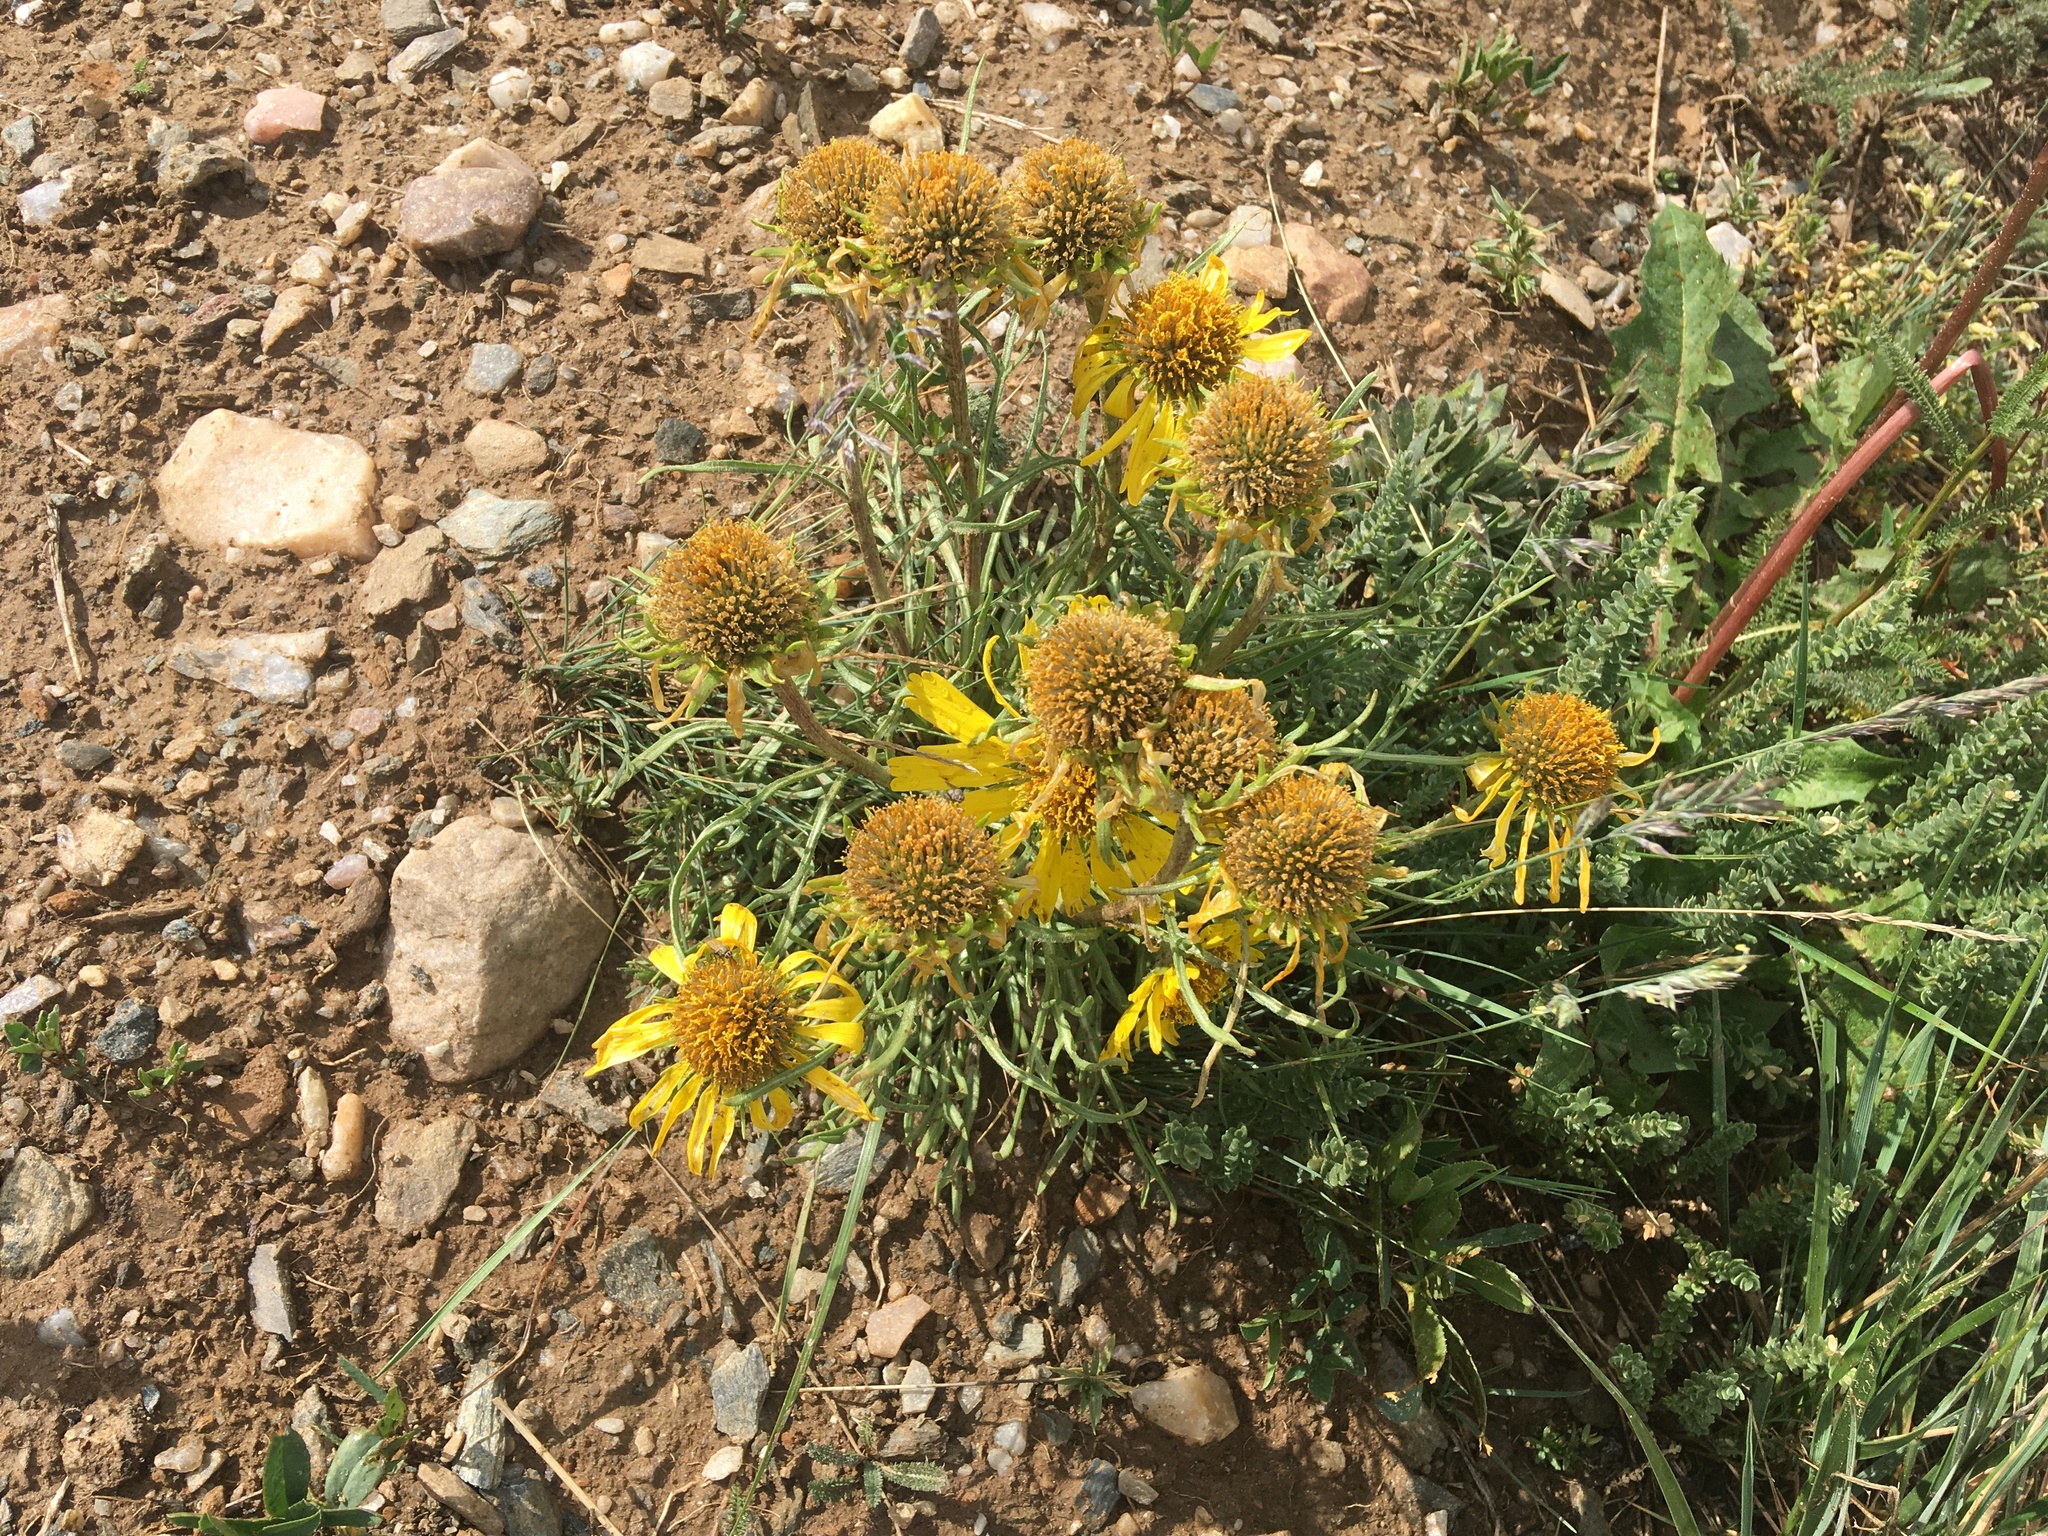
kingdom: Plantae
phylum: Tracheophyta
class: Magnoliopsida
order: Asterales
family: Asteraceae
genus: Hymenoxys
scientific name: Hymenoxys grandiflora
